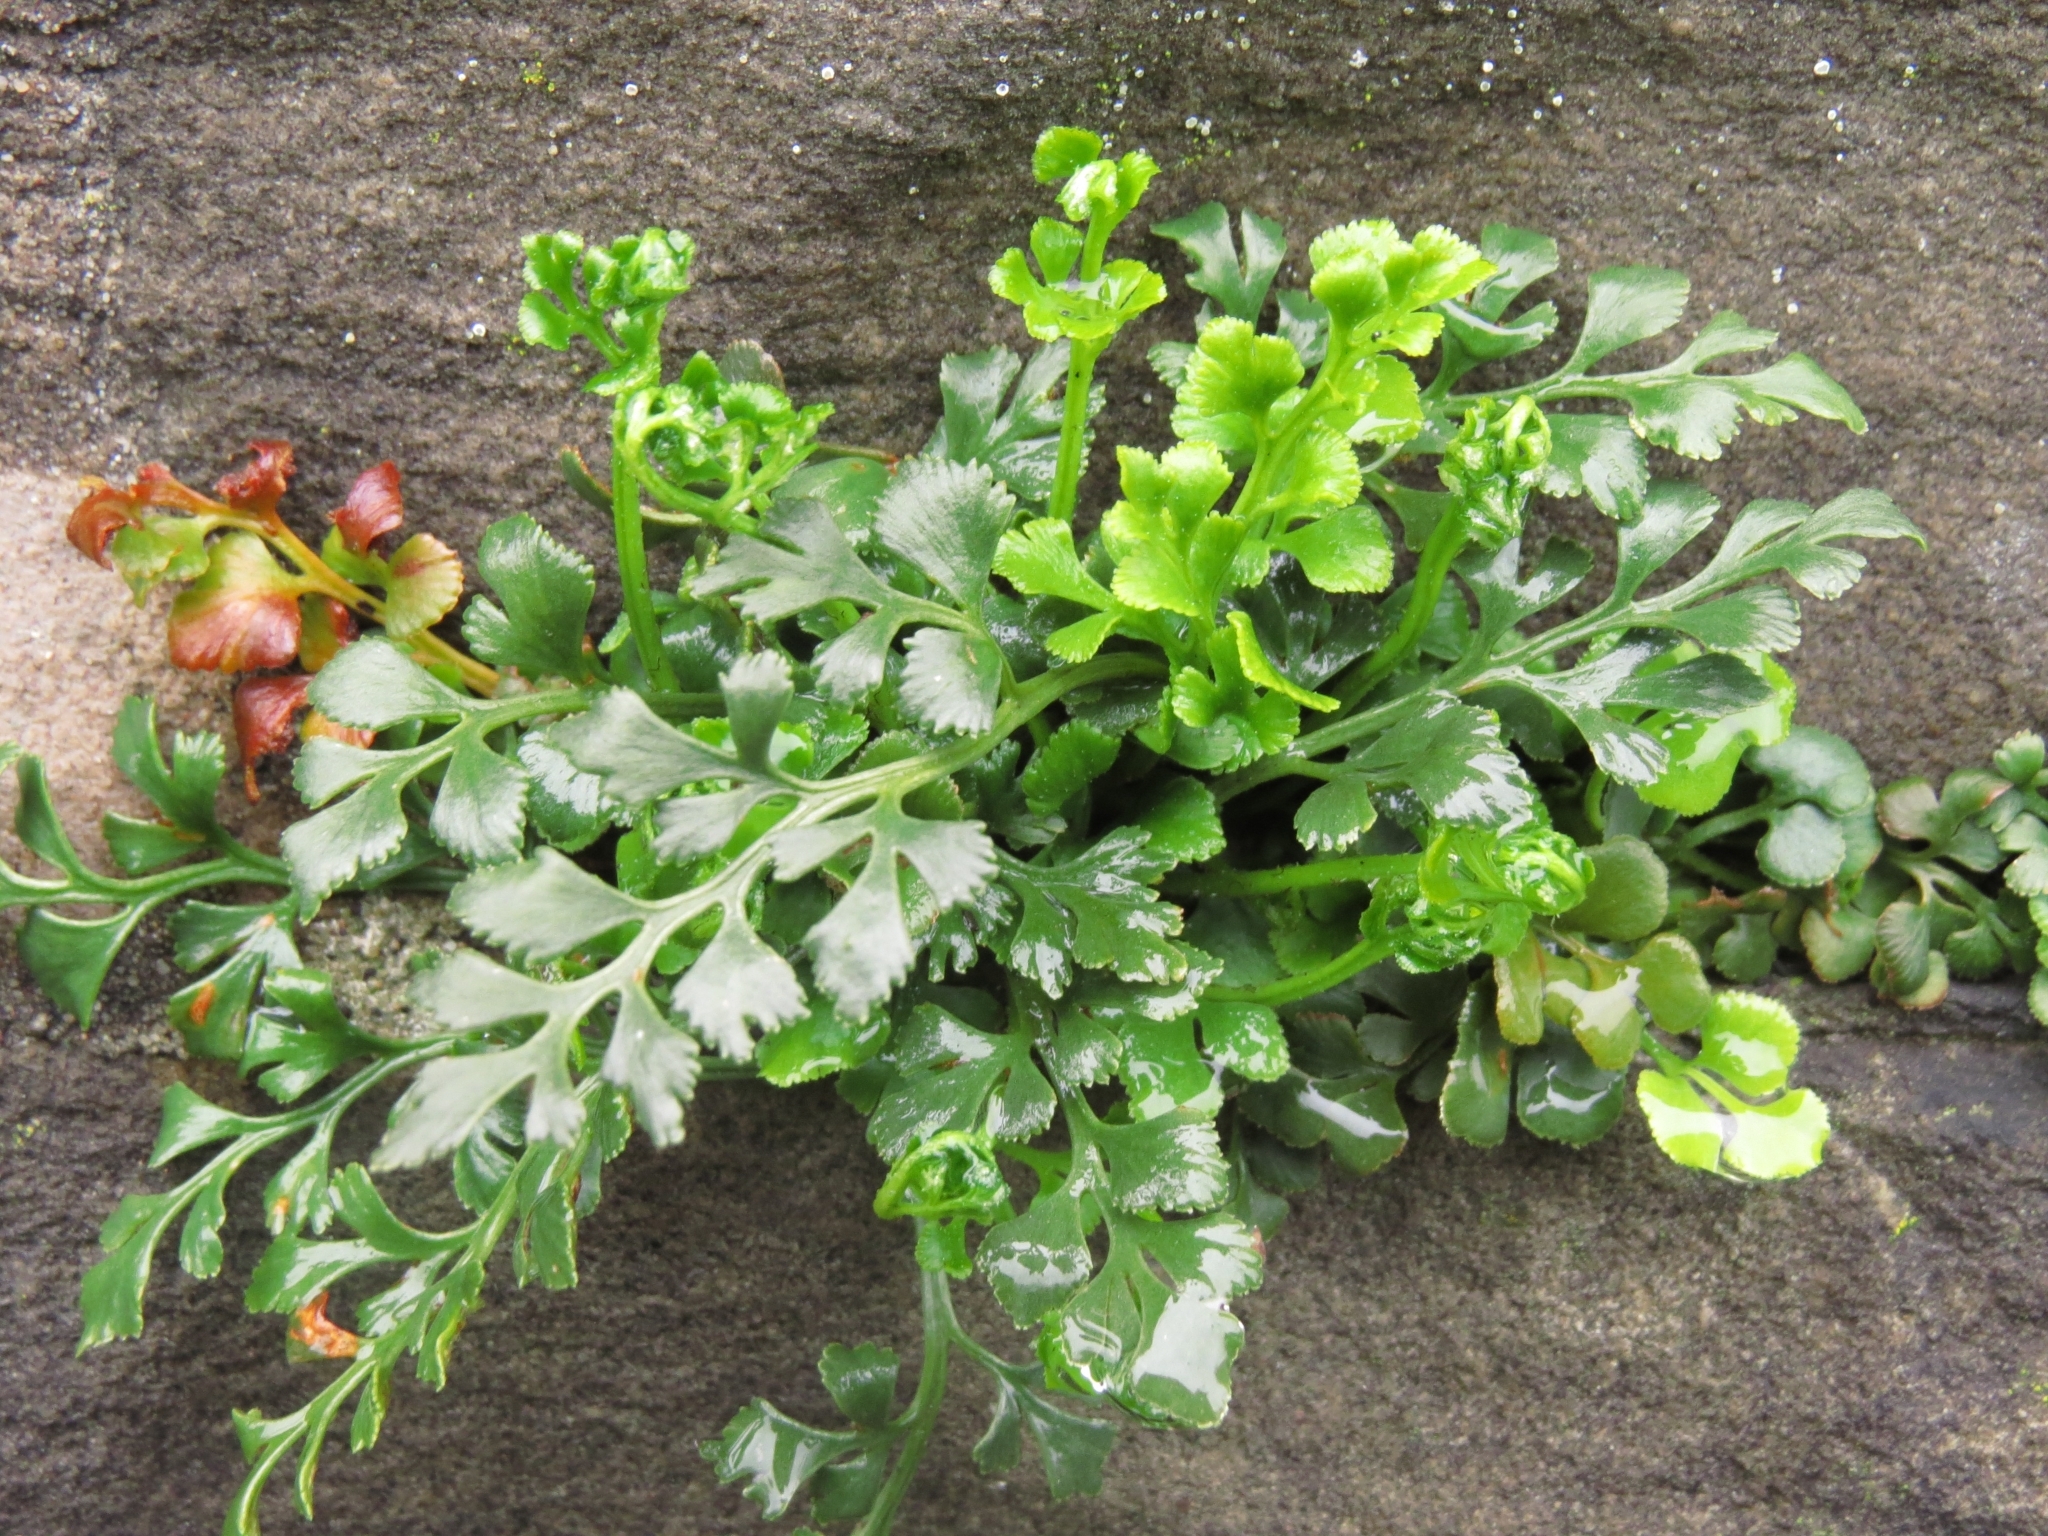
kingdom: Plantae
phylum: Tracheophyta
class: Polypodiopsida
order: Polypodiales
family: Aspleniaceae
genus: Asplenium
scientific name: Asplenium ruta-muraria
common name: Wall-rue
